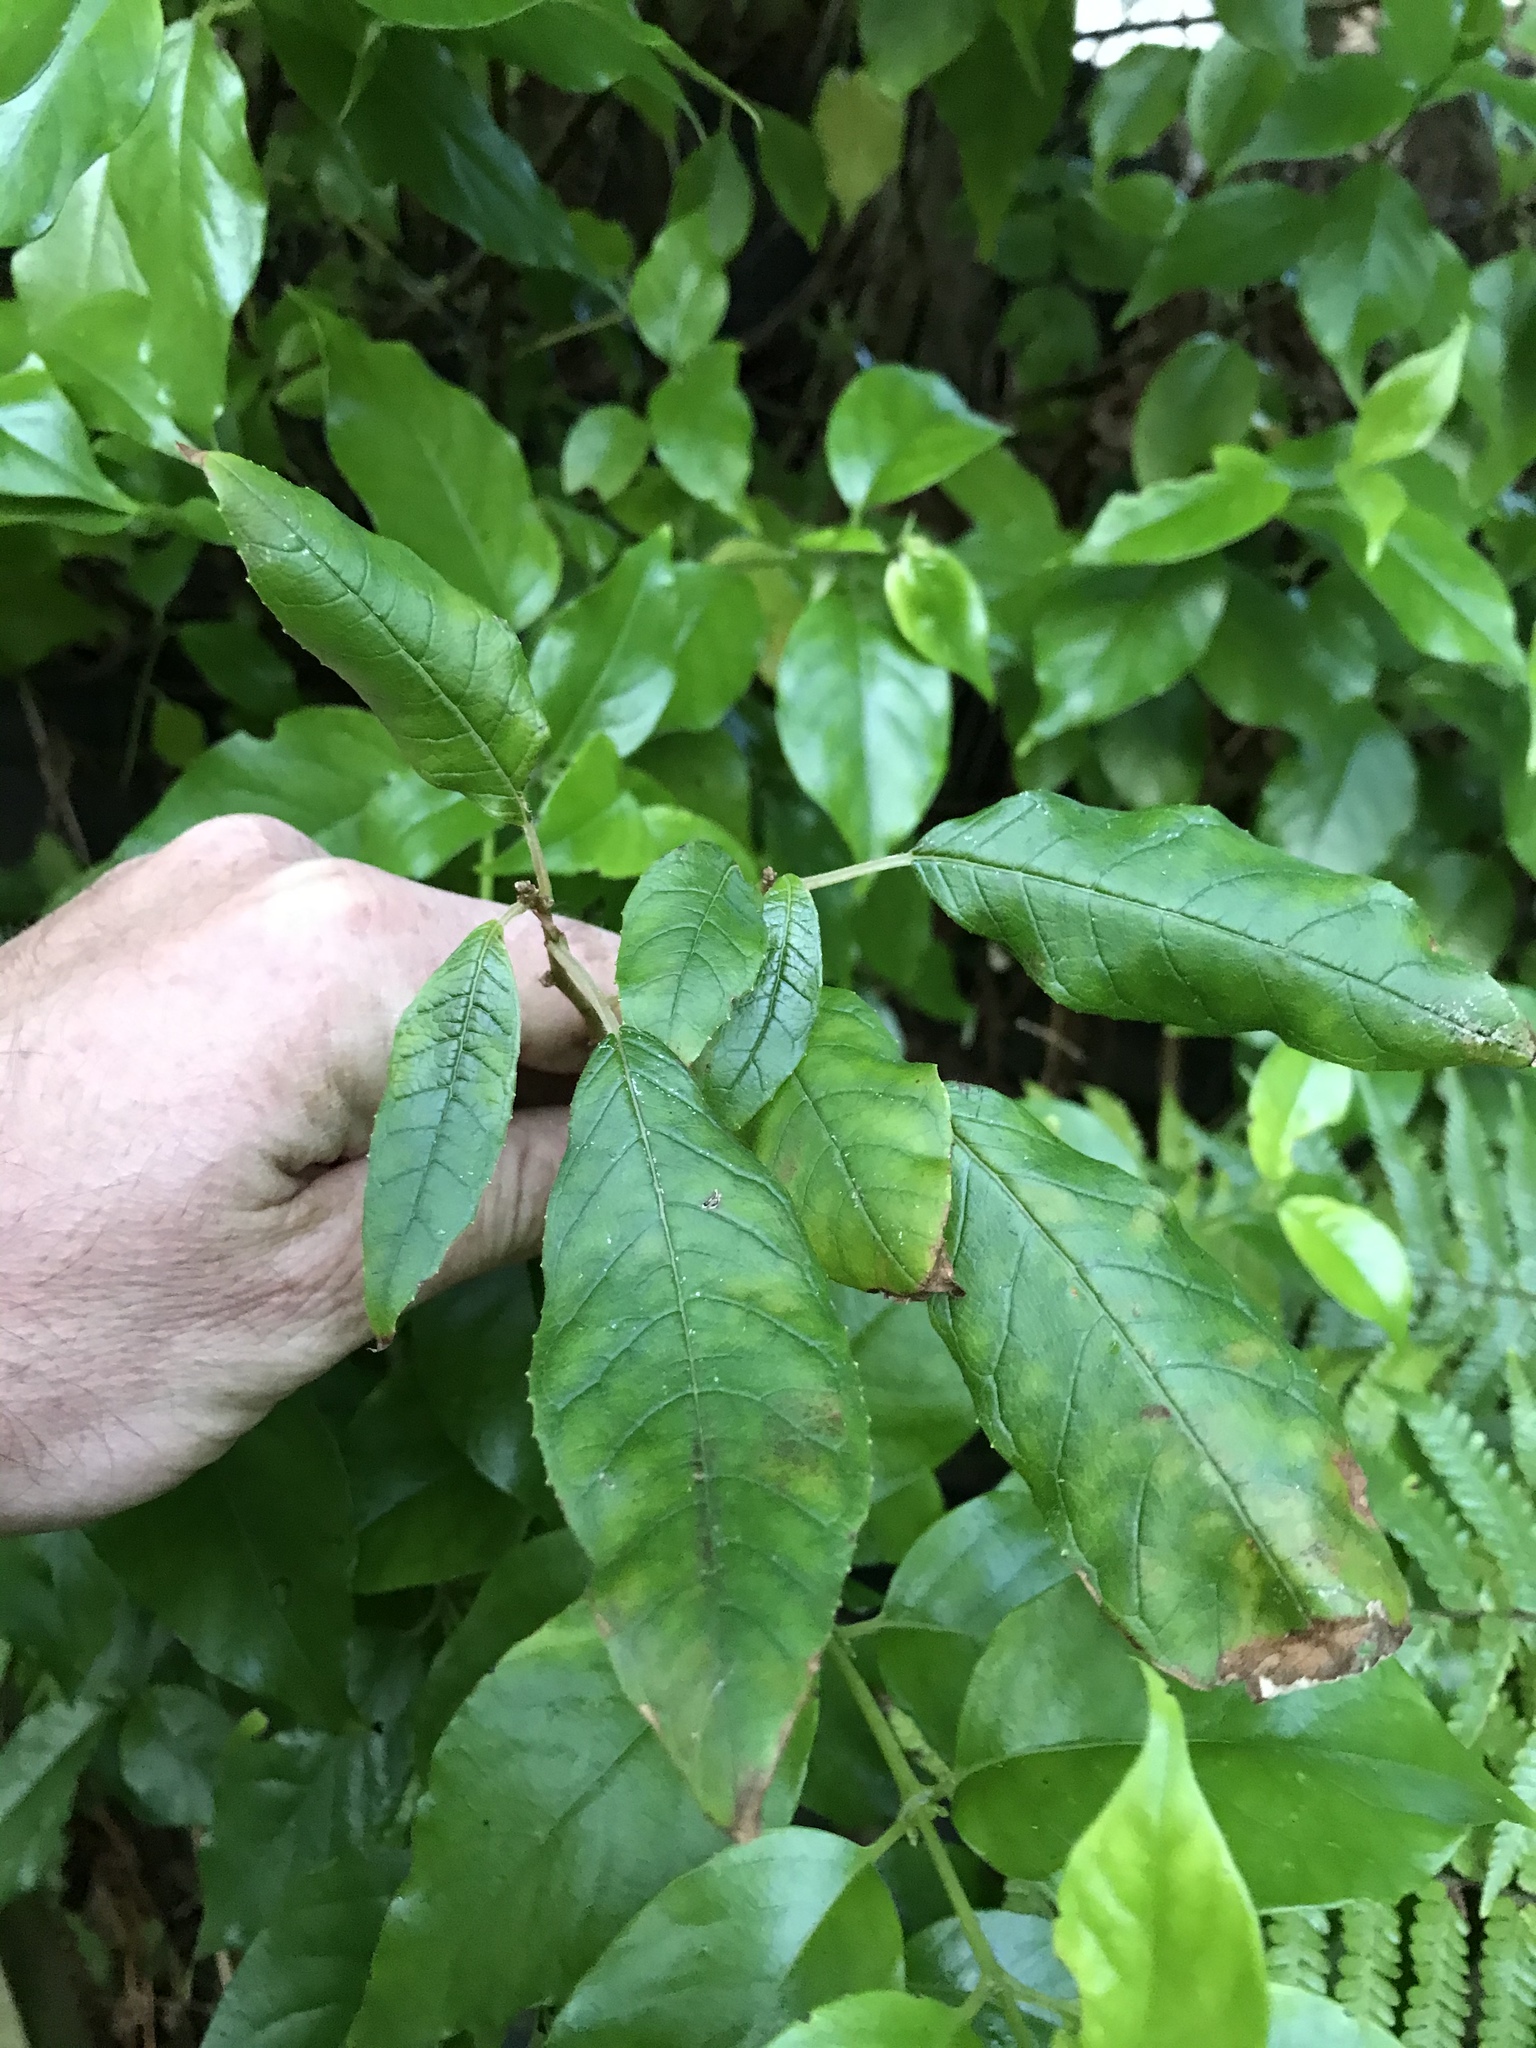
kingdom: Plantae
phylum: Tracheophyta
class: Magnoliopsida
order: Myrtales
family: Onagraceae
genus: Fuchsia
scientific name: Fuchsia excorticata
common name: Tree fuchsia
